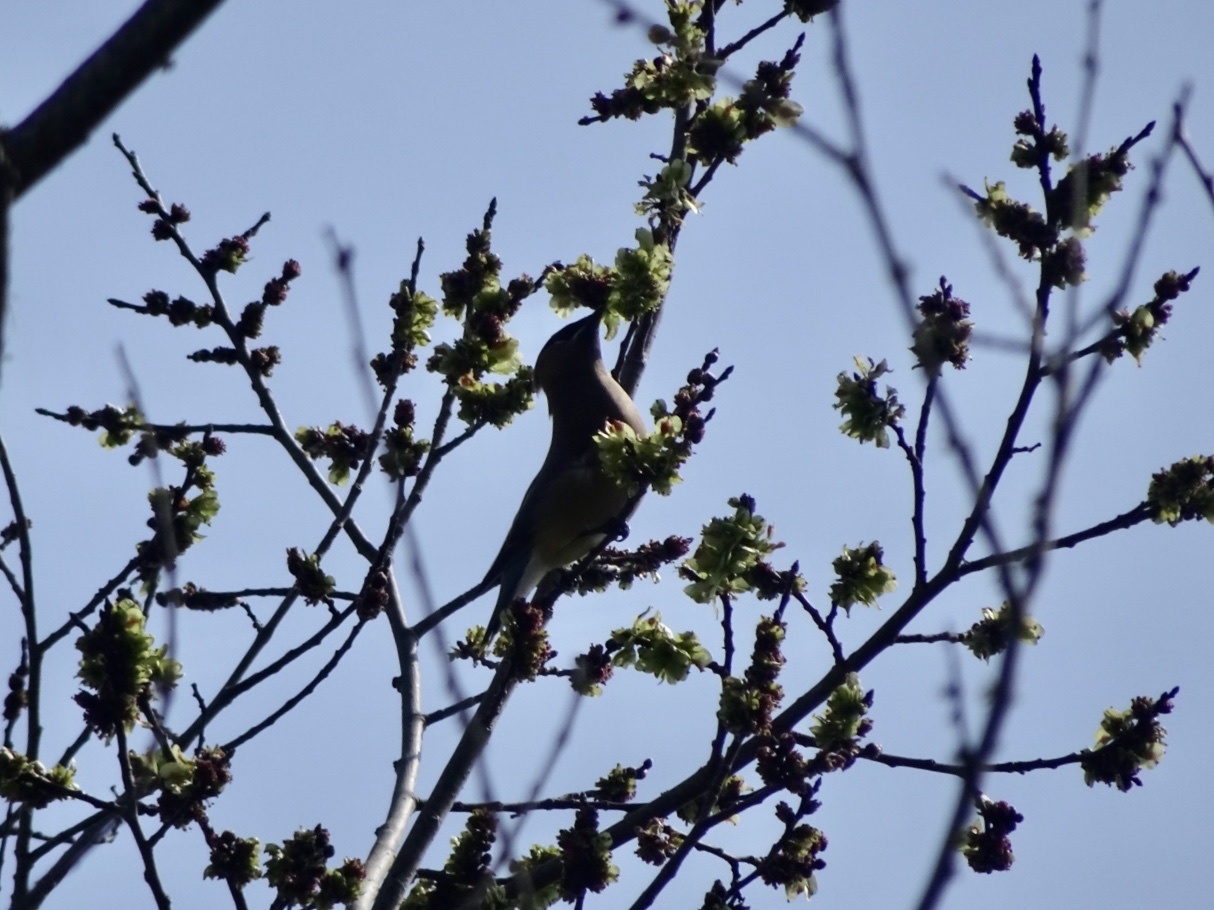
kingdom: Animalia
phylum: Chordata
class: Aves
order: Passeriformes
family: Bombycillidae
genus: Bombycilla
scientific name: Bombycilla cedrorum
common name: Cedar waxwing
